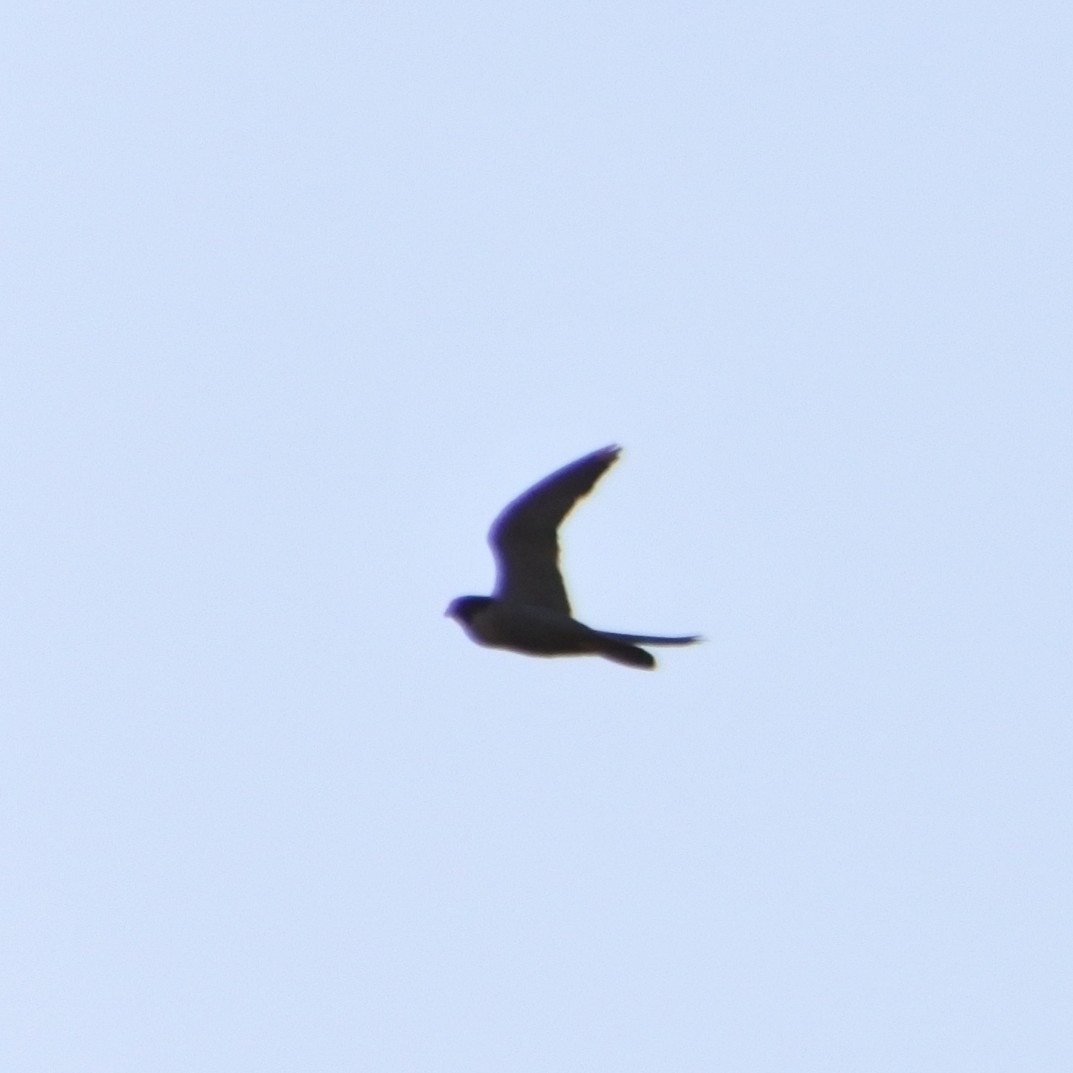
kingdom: Animalia
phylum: Chordata
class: Aves
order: Falconiformes
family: Falconidae
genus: Falco
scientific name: Falco peregrinus
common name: Peregrine falcon
